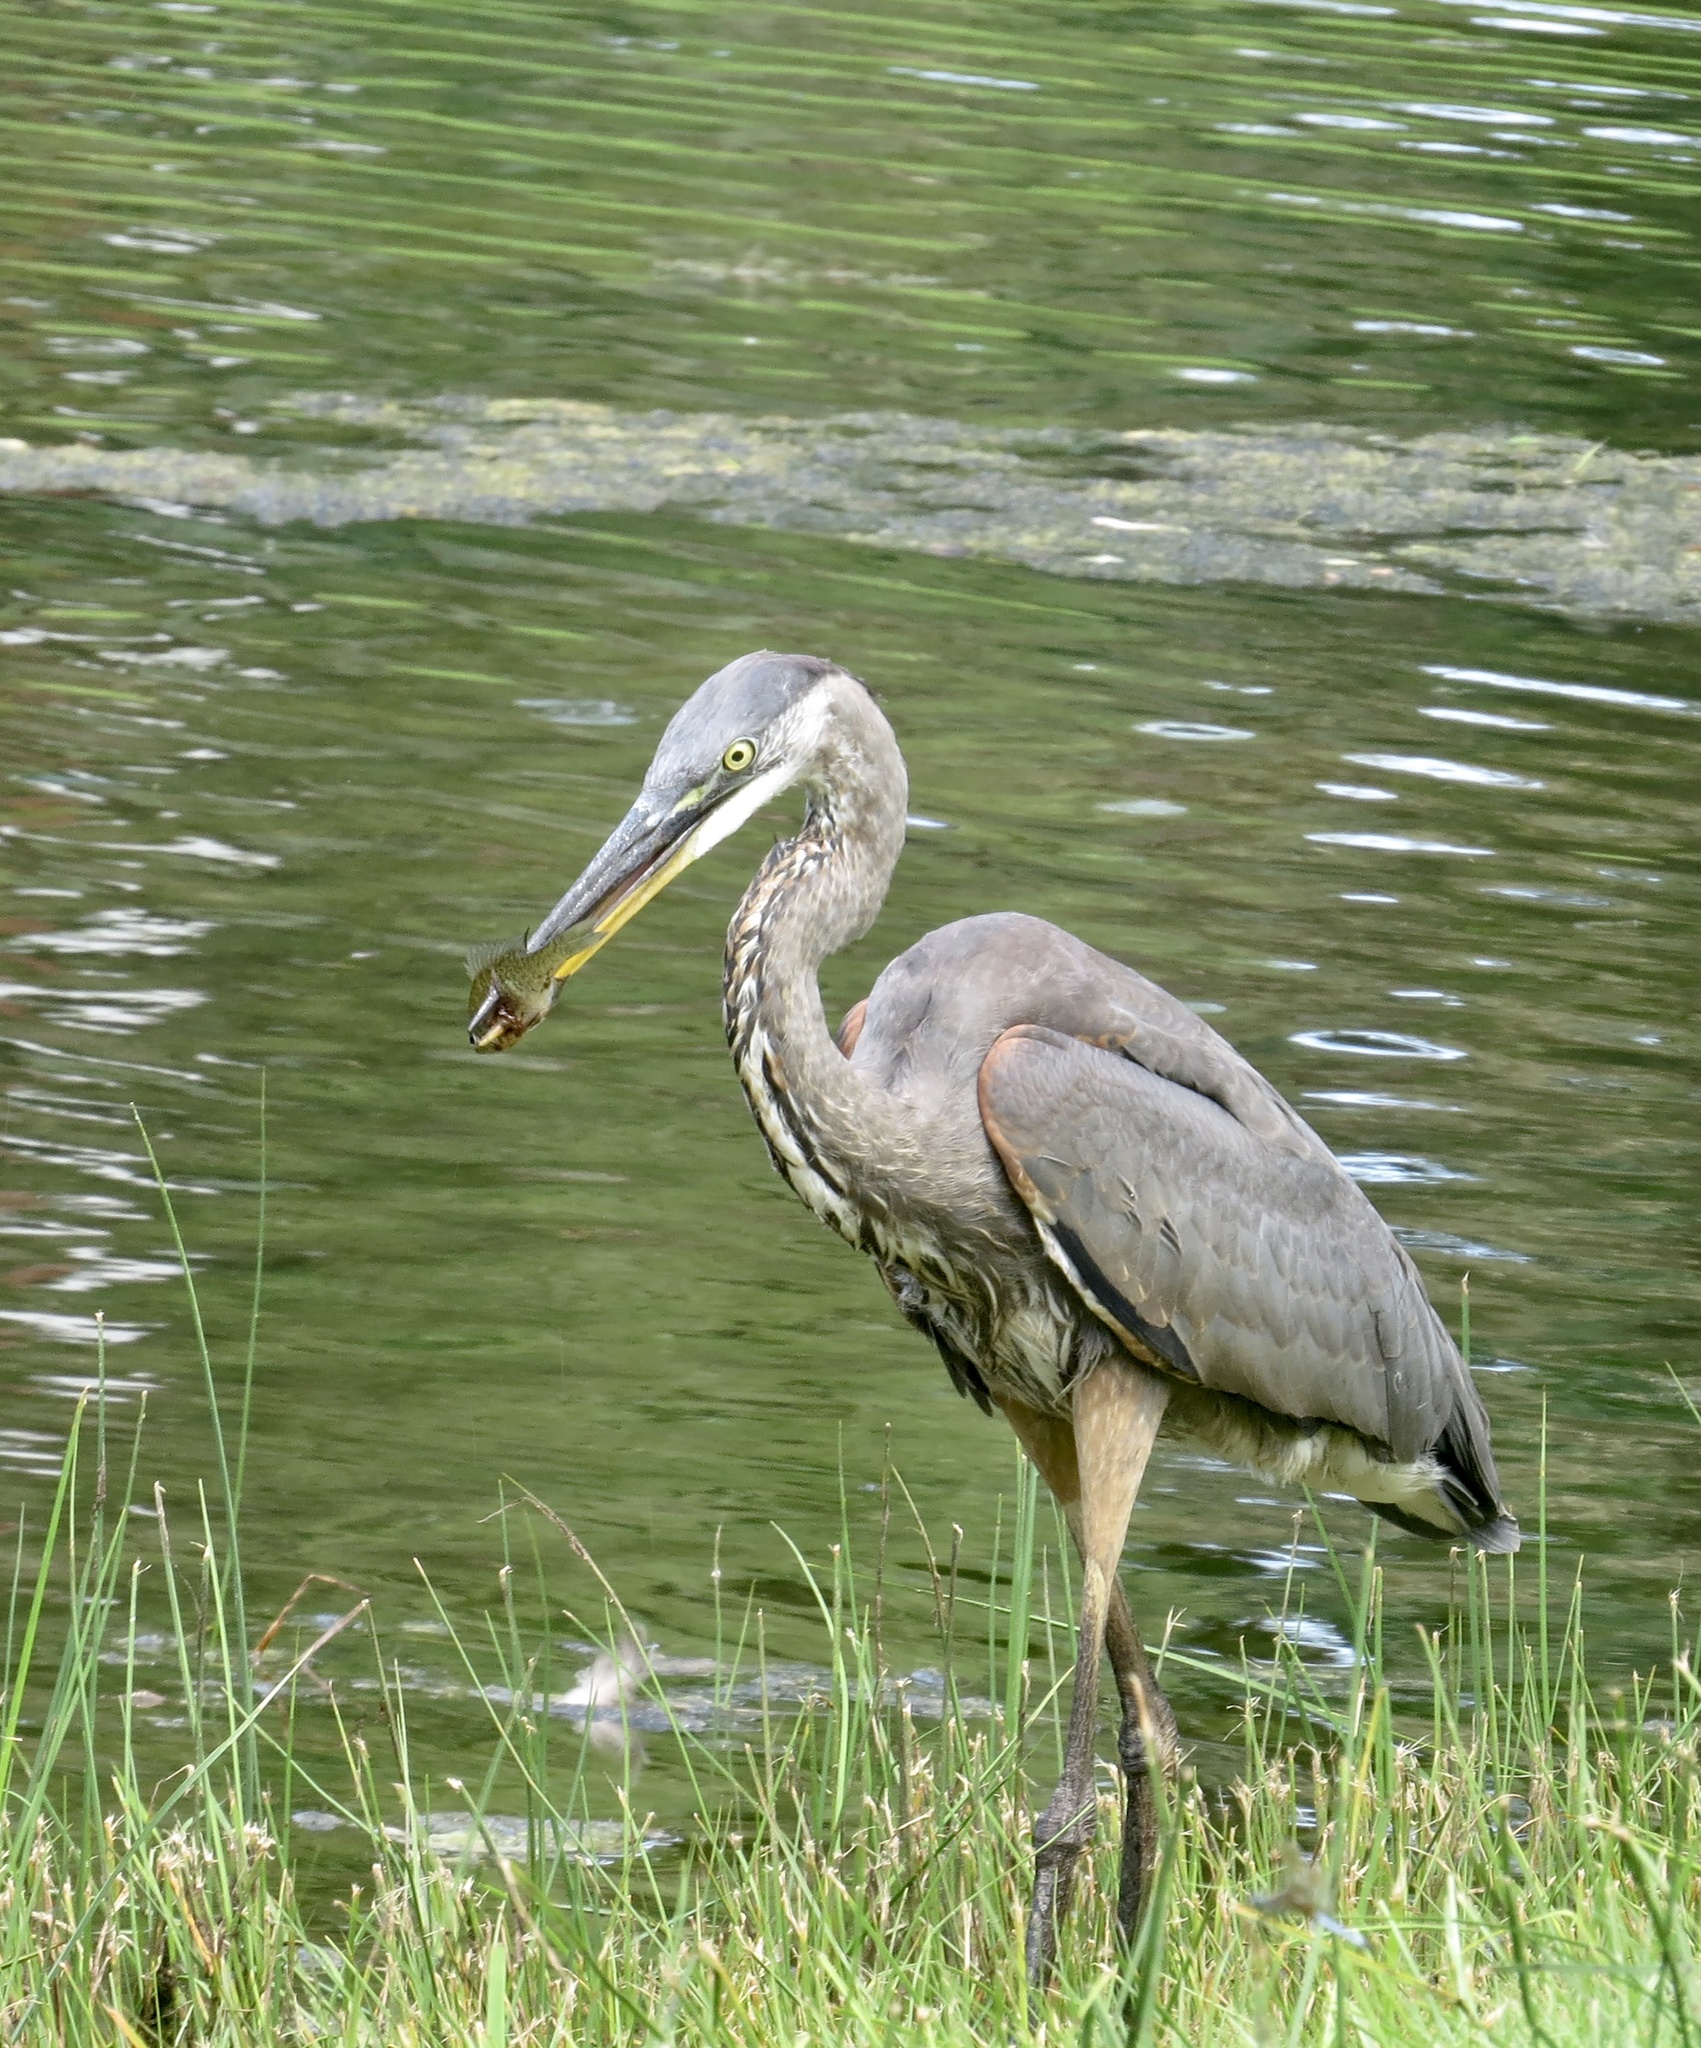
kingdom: Animalia
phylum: Chordata
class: Aves
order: Pelecaniformes
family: Ardeidae
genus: Ardea
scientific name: Ardea herodias
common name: Great blue heron
